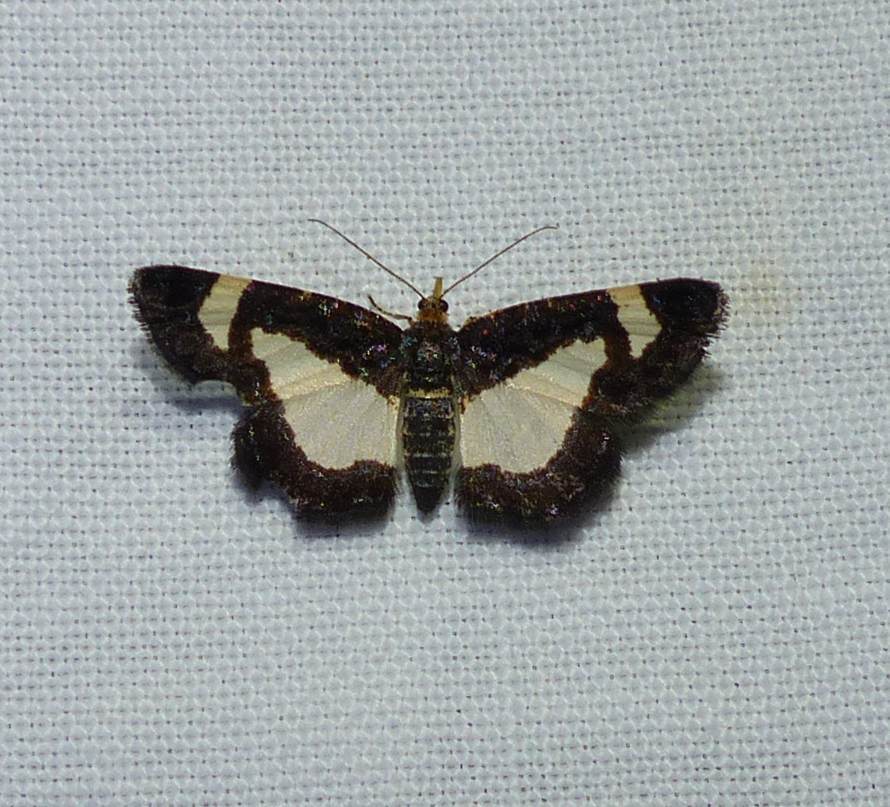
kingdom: Animalia
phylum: Arthropoda
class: Insecta
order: Lepidoptera
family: Geometridae
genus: Heliomata
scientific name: Heliomata cycladata
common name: Common spring moth
